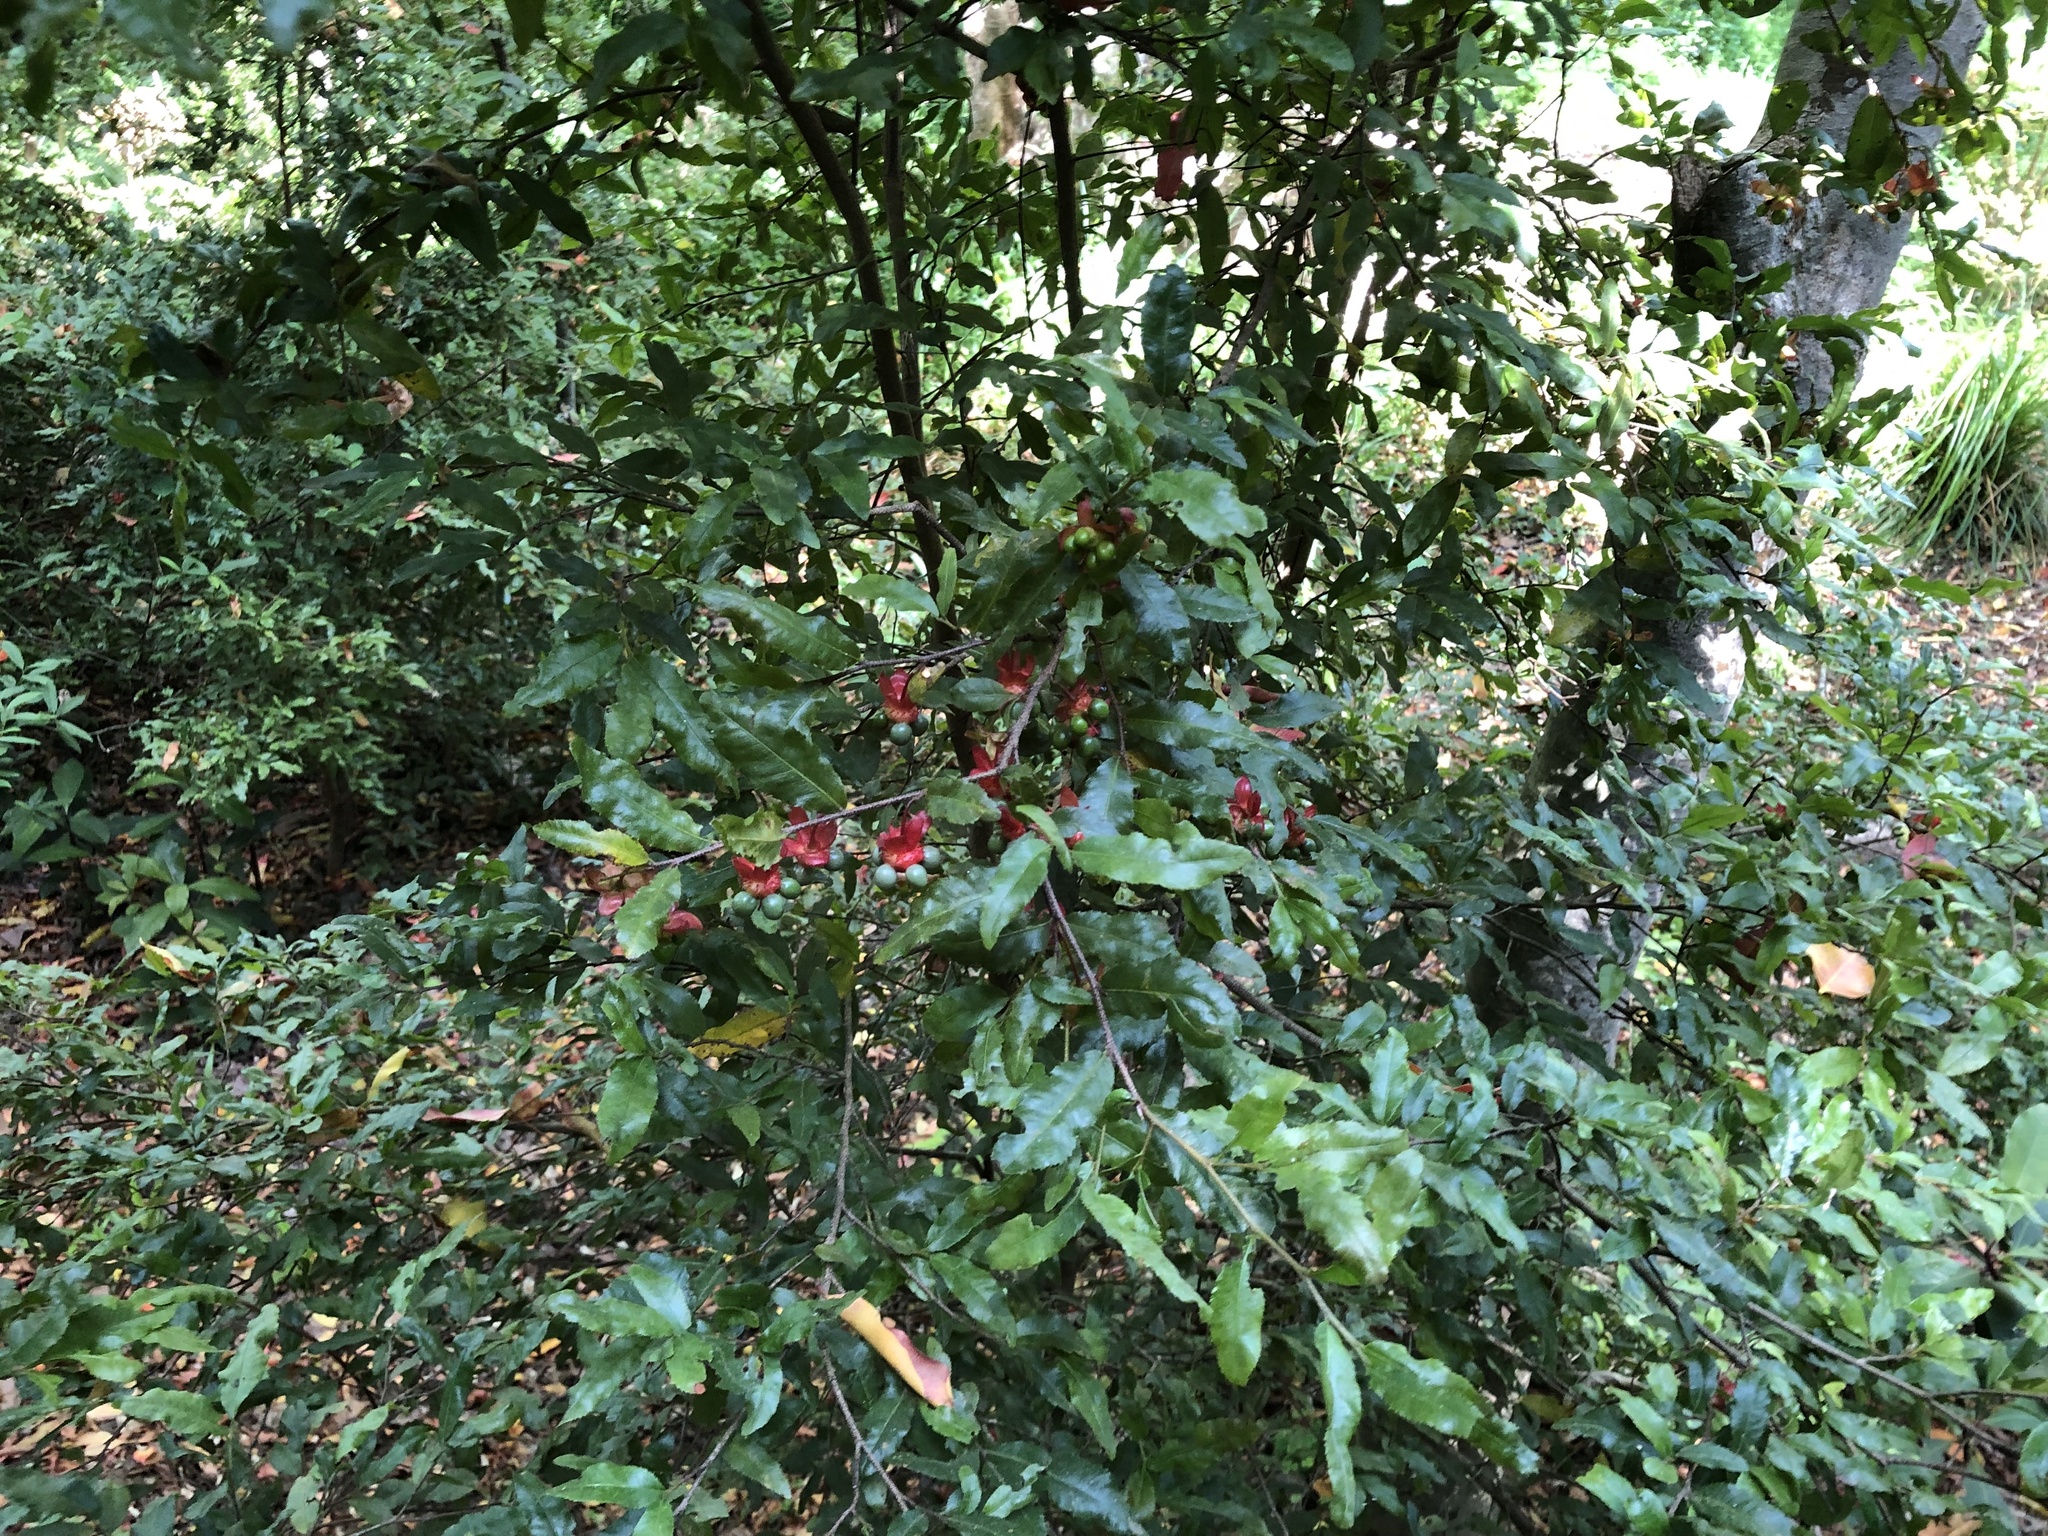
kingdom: Plantae
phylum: Tracheophyta
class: Magnoliopsida
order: Malpighiales
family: Ochnaceae
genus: Ochna
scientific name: Ochna serrulata
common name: Mickey mouse plant
